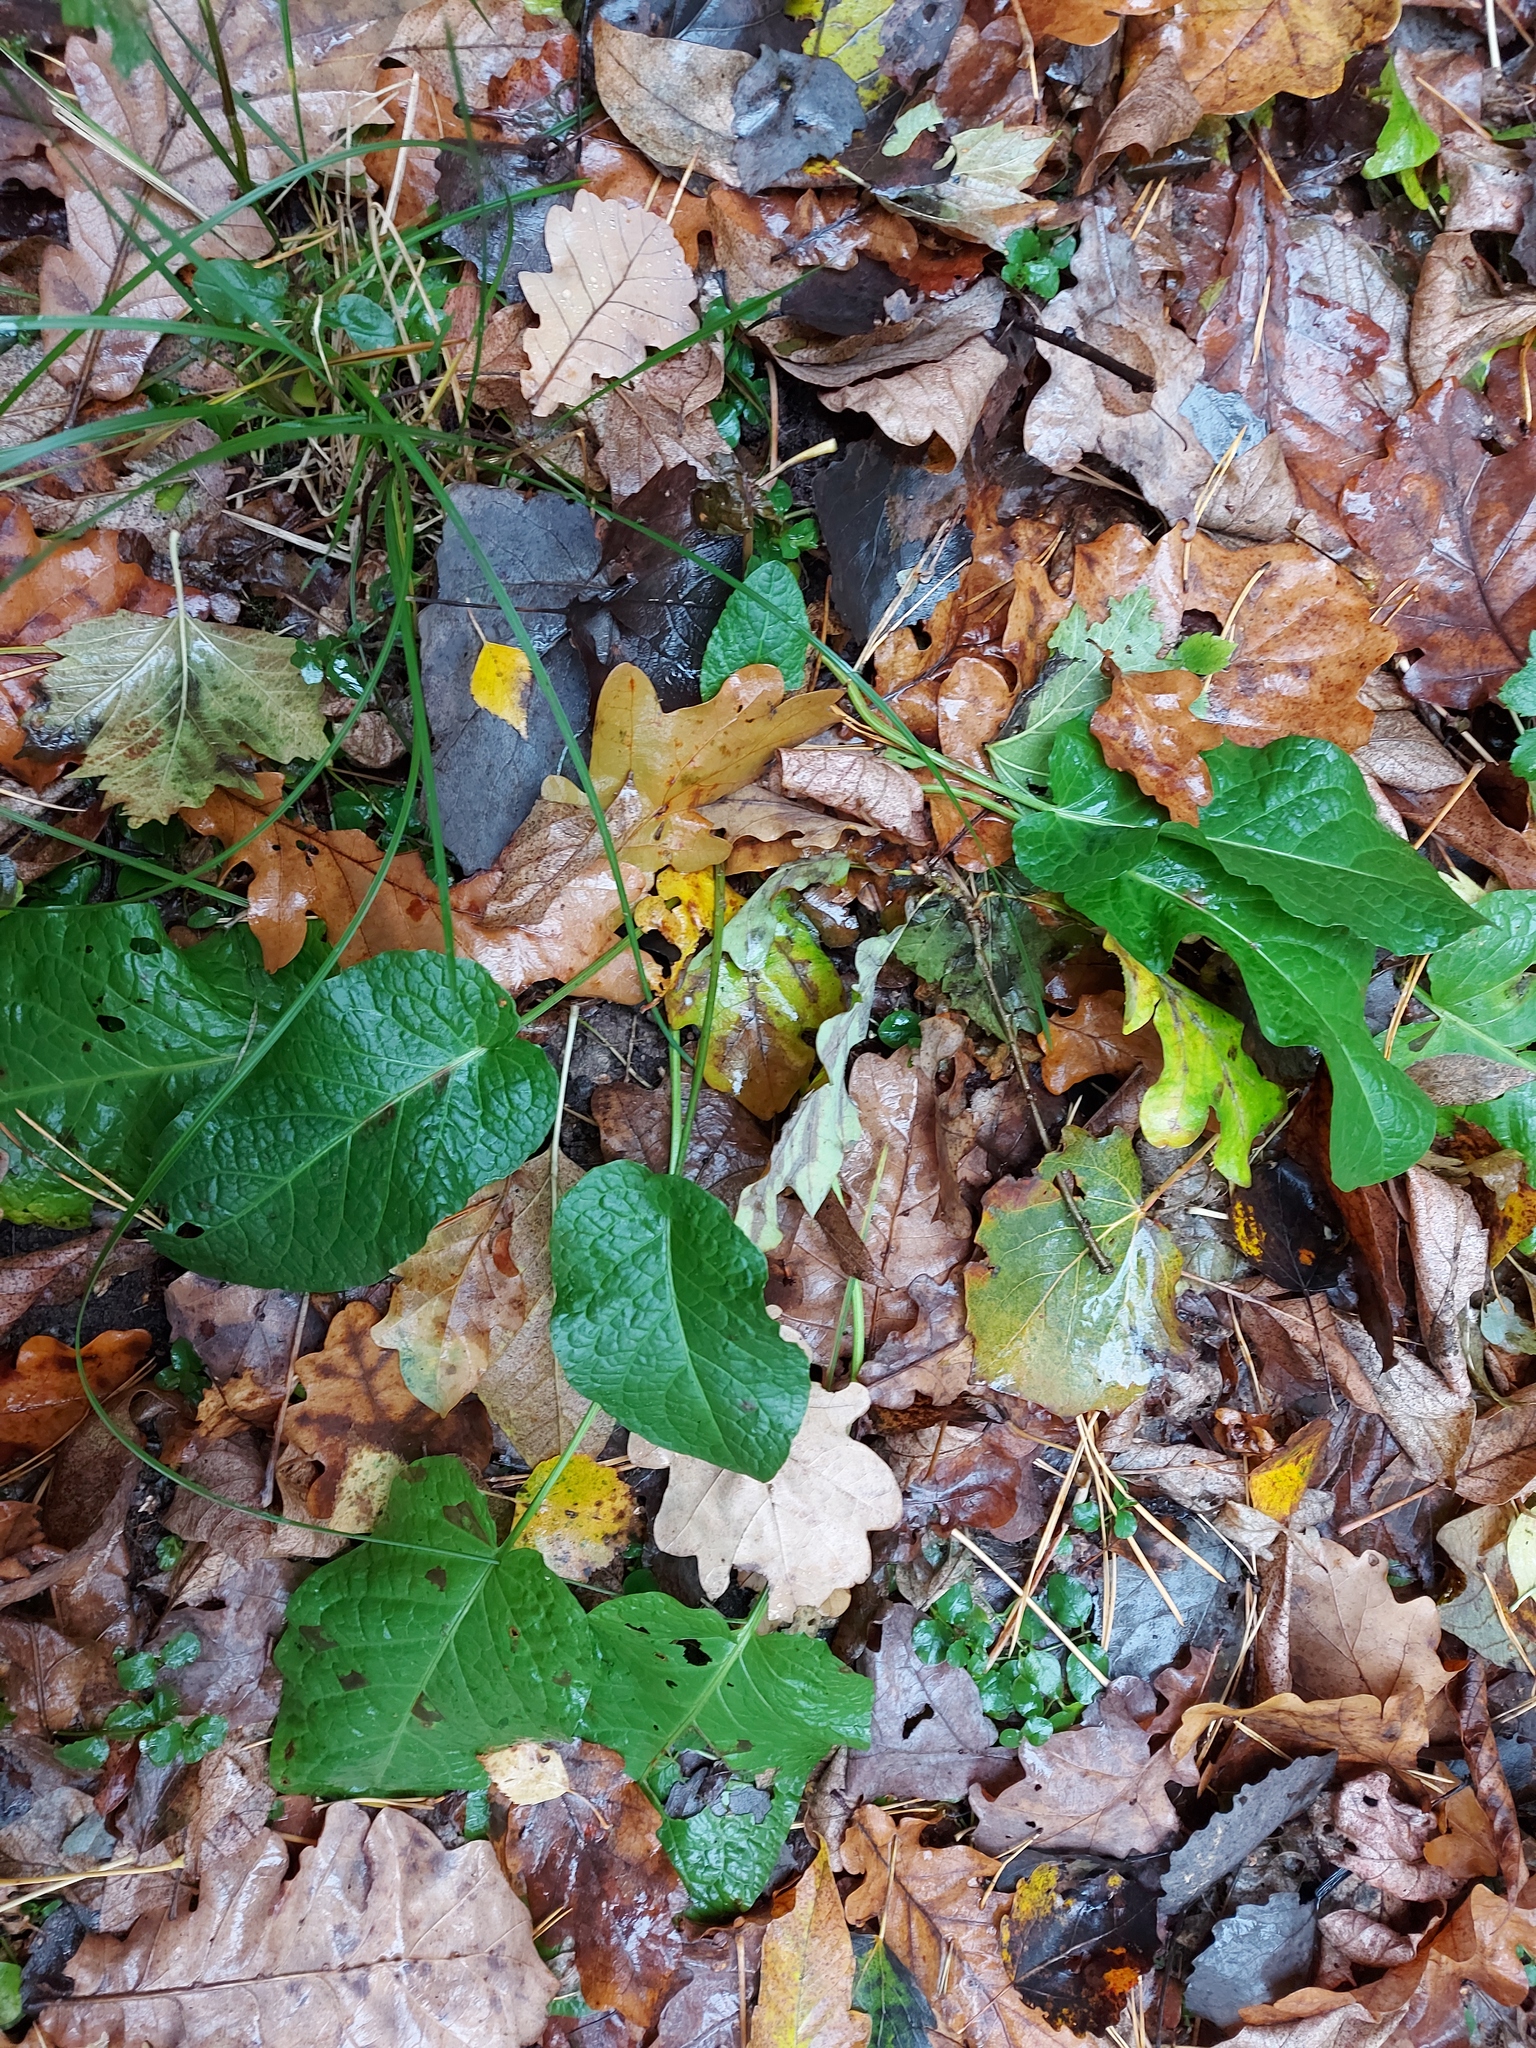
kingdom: Plantae
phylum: Tracheophyta
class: Magnoliopsida
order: Caryophyllales
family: Polygonaceae
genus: Rumex
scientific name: Rumex obtusifolius
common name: Bitter dock
